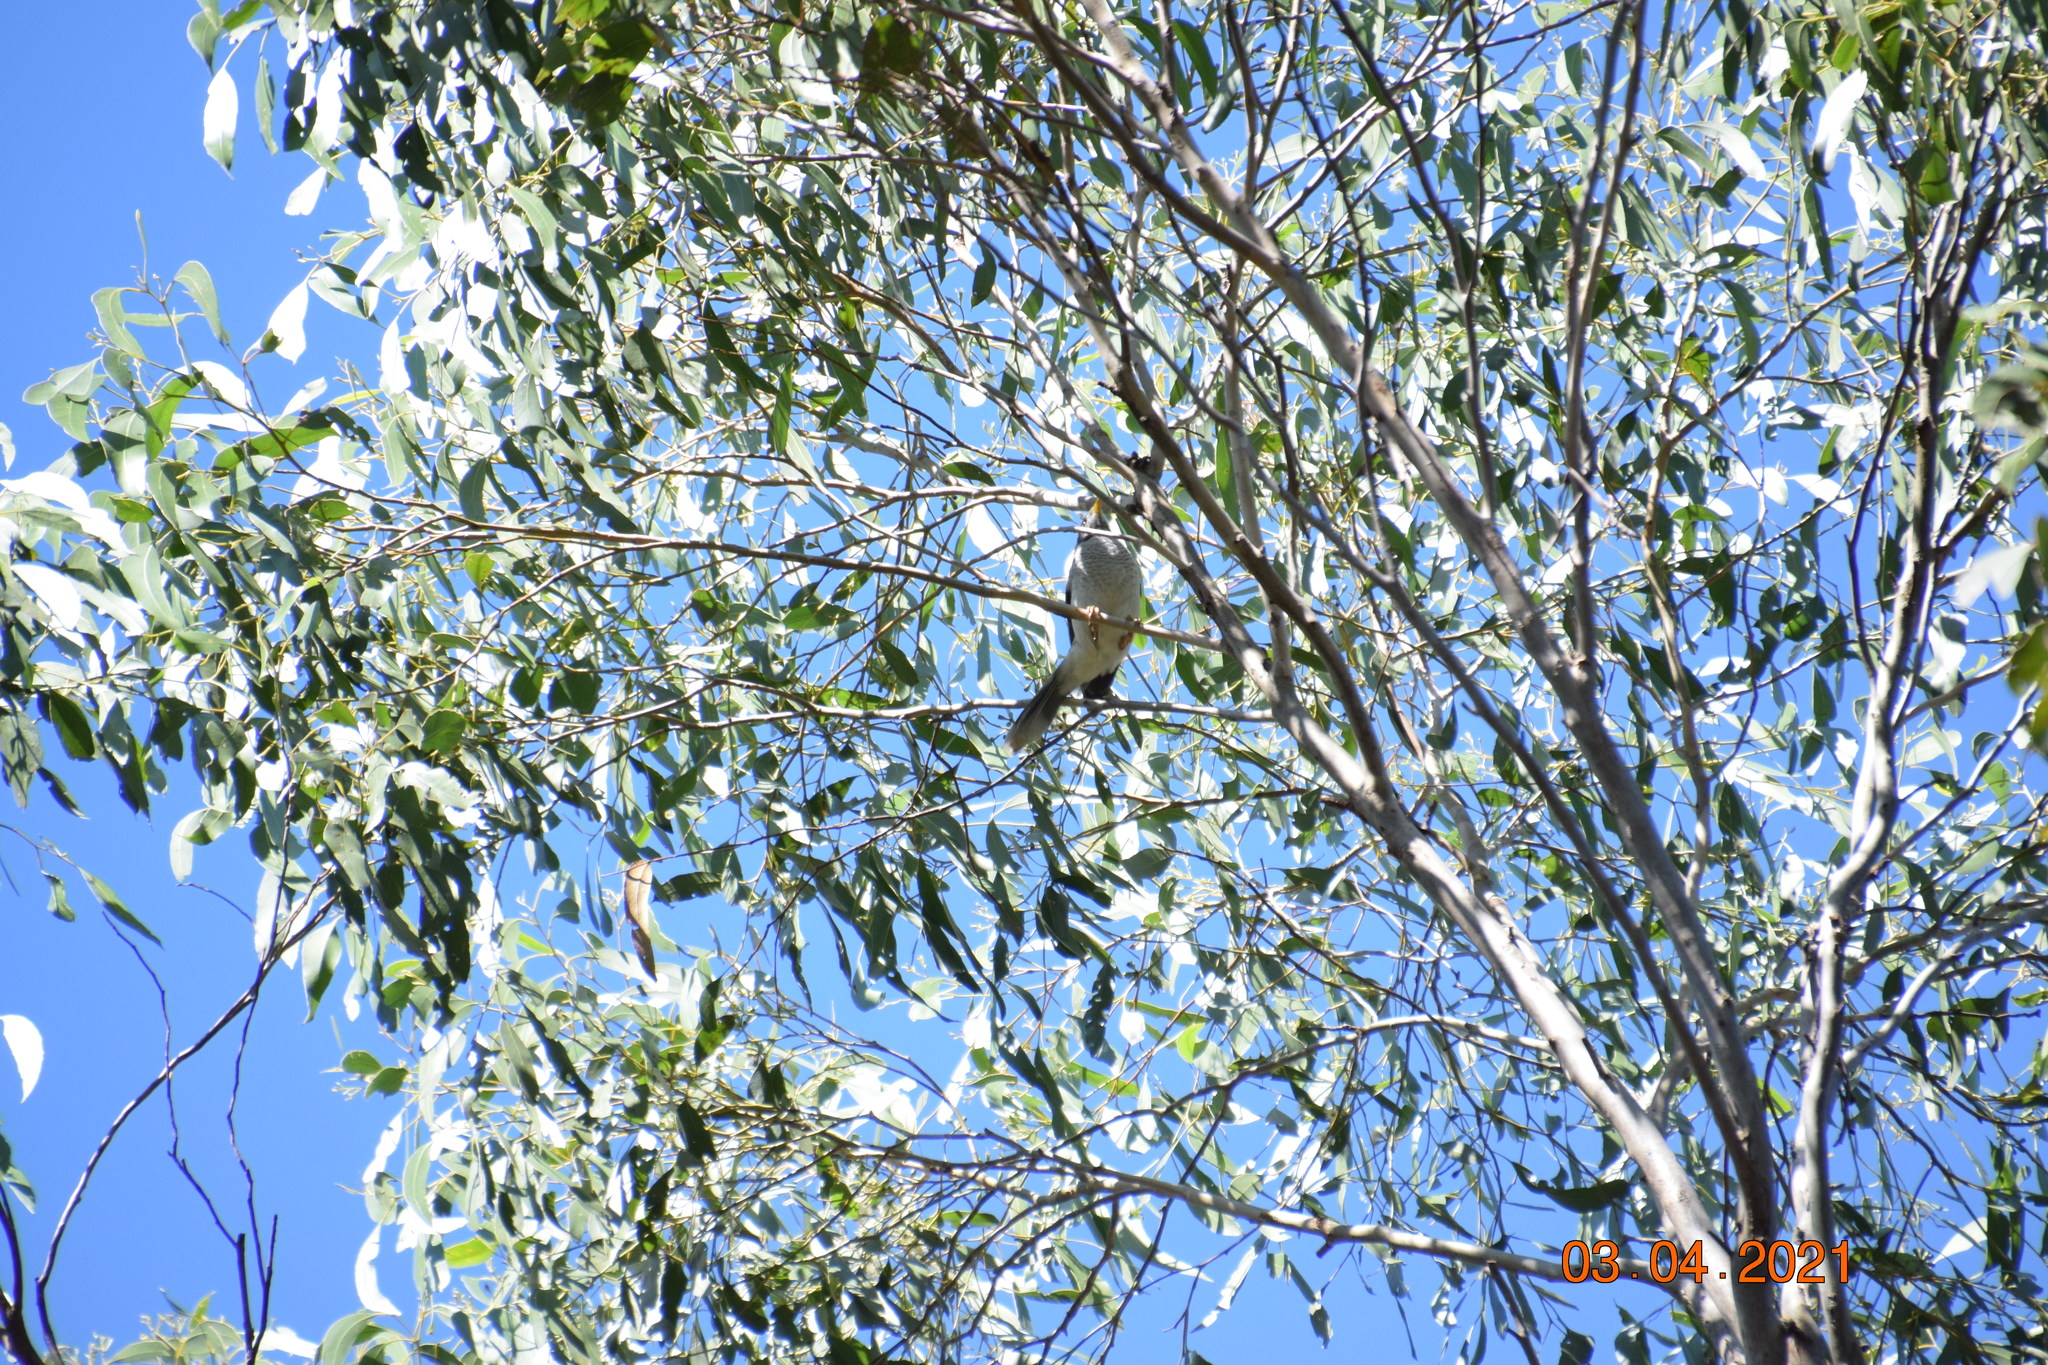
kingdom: Animalia
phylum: Chordata
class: Aves
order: Passeriformes
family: Meliphagidae
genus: Manorina
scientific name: Manorina melanocephala
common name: Noisy miner
